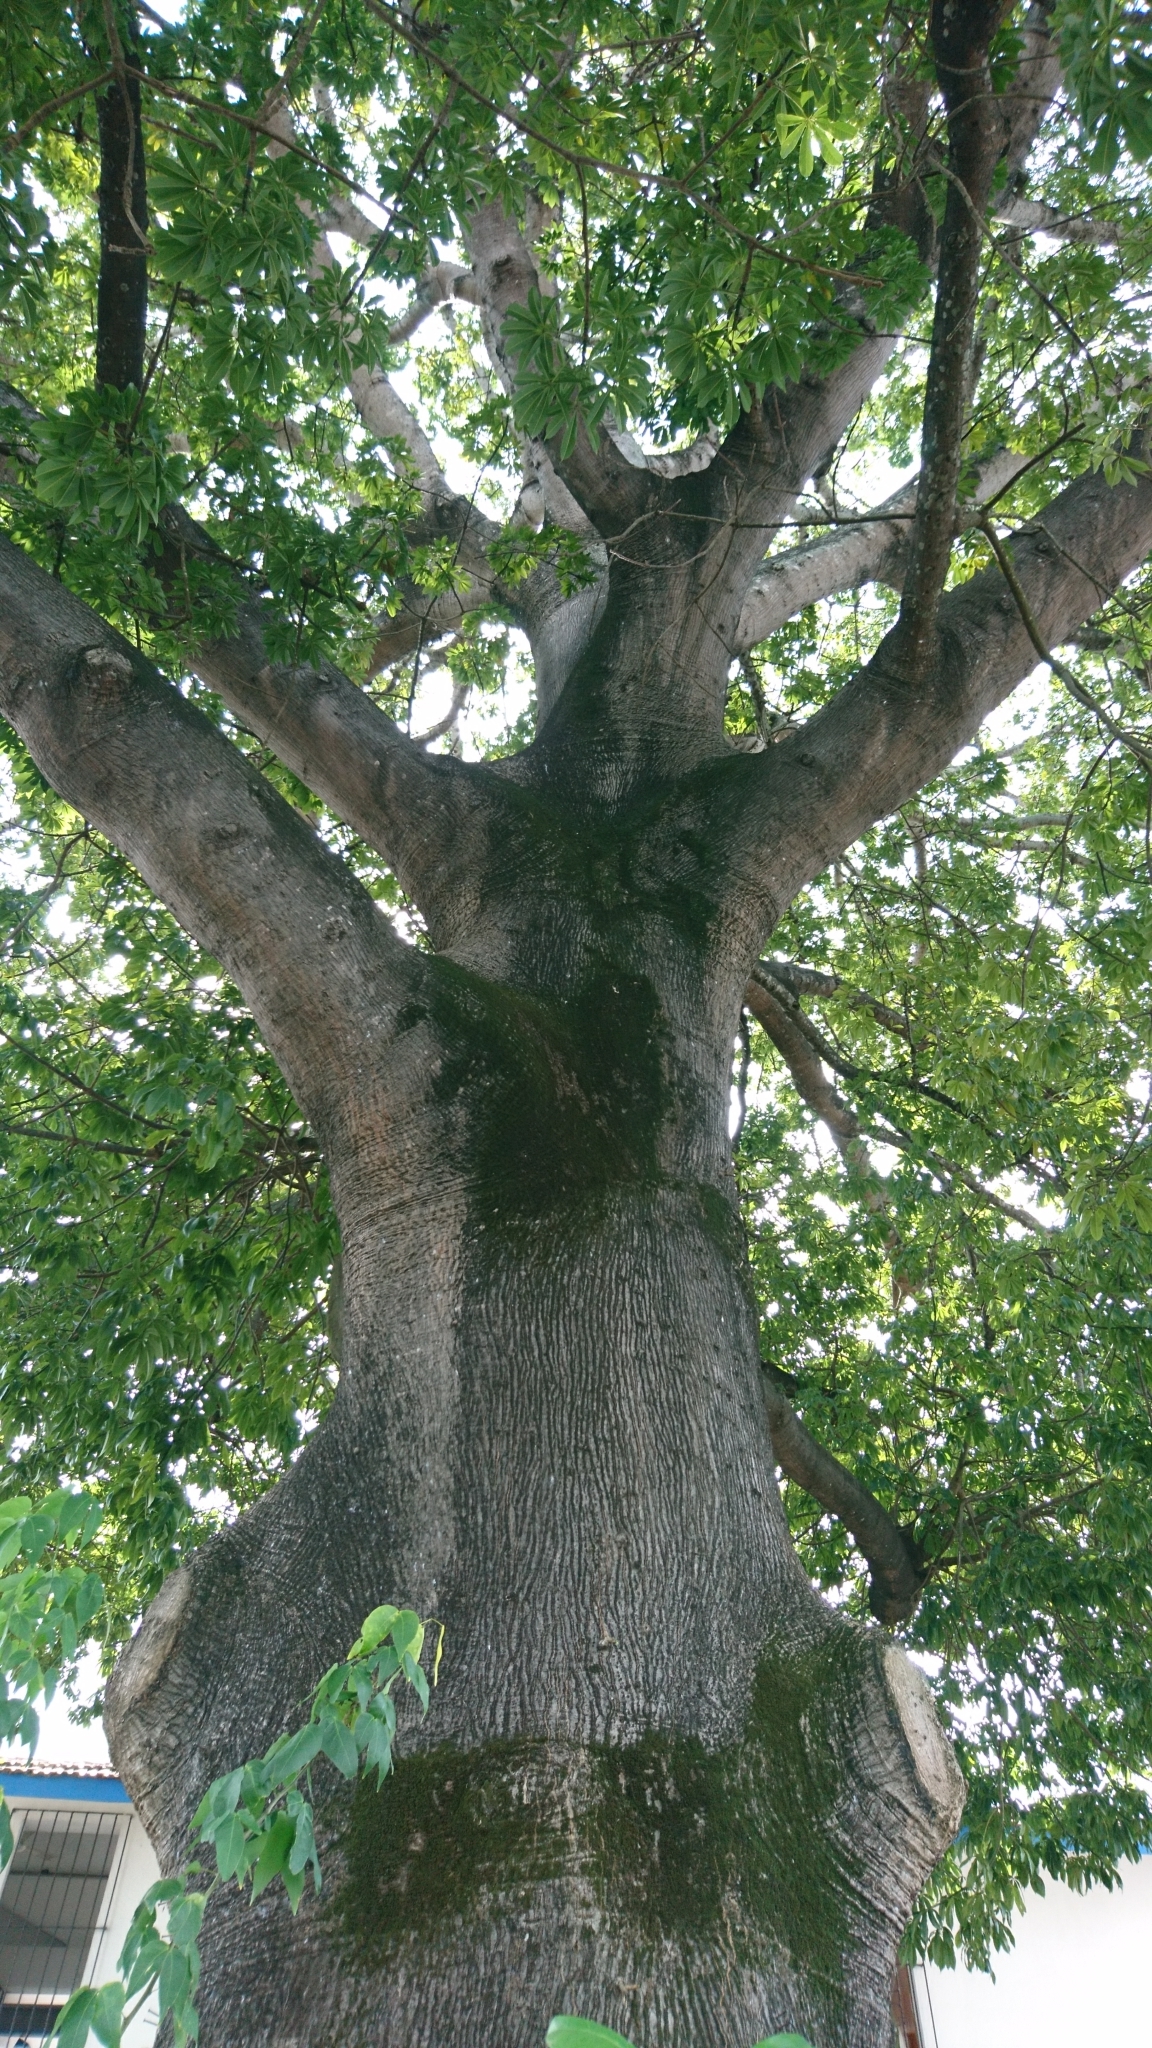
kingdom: Plantae
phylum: Tracheophyta
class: Magnoliopsida
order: Malvales
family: Malvaceae
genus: Ceiba
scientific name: Ceiba pentandra
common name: Kapok
